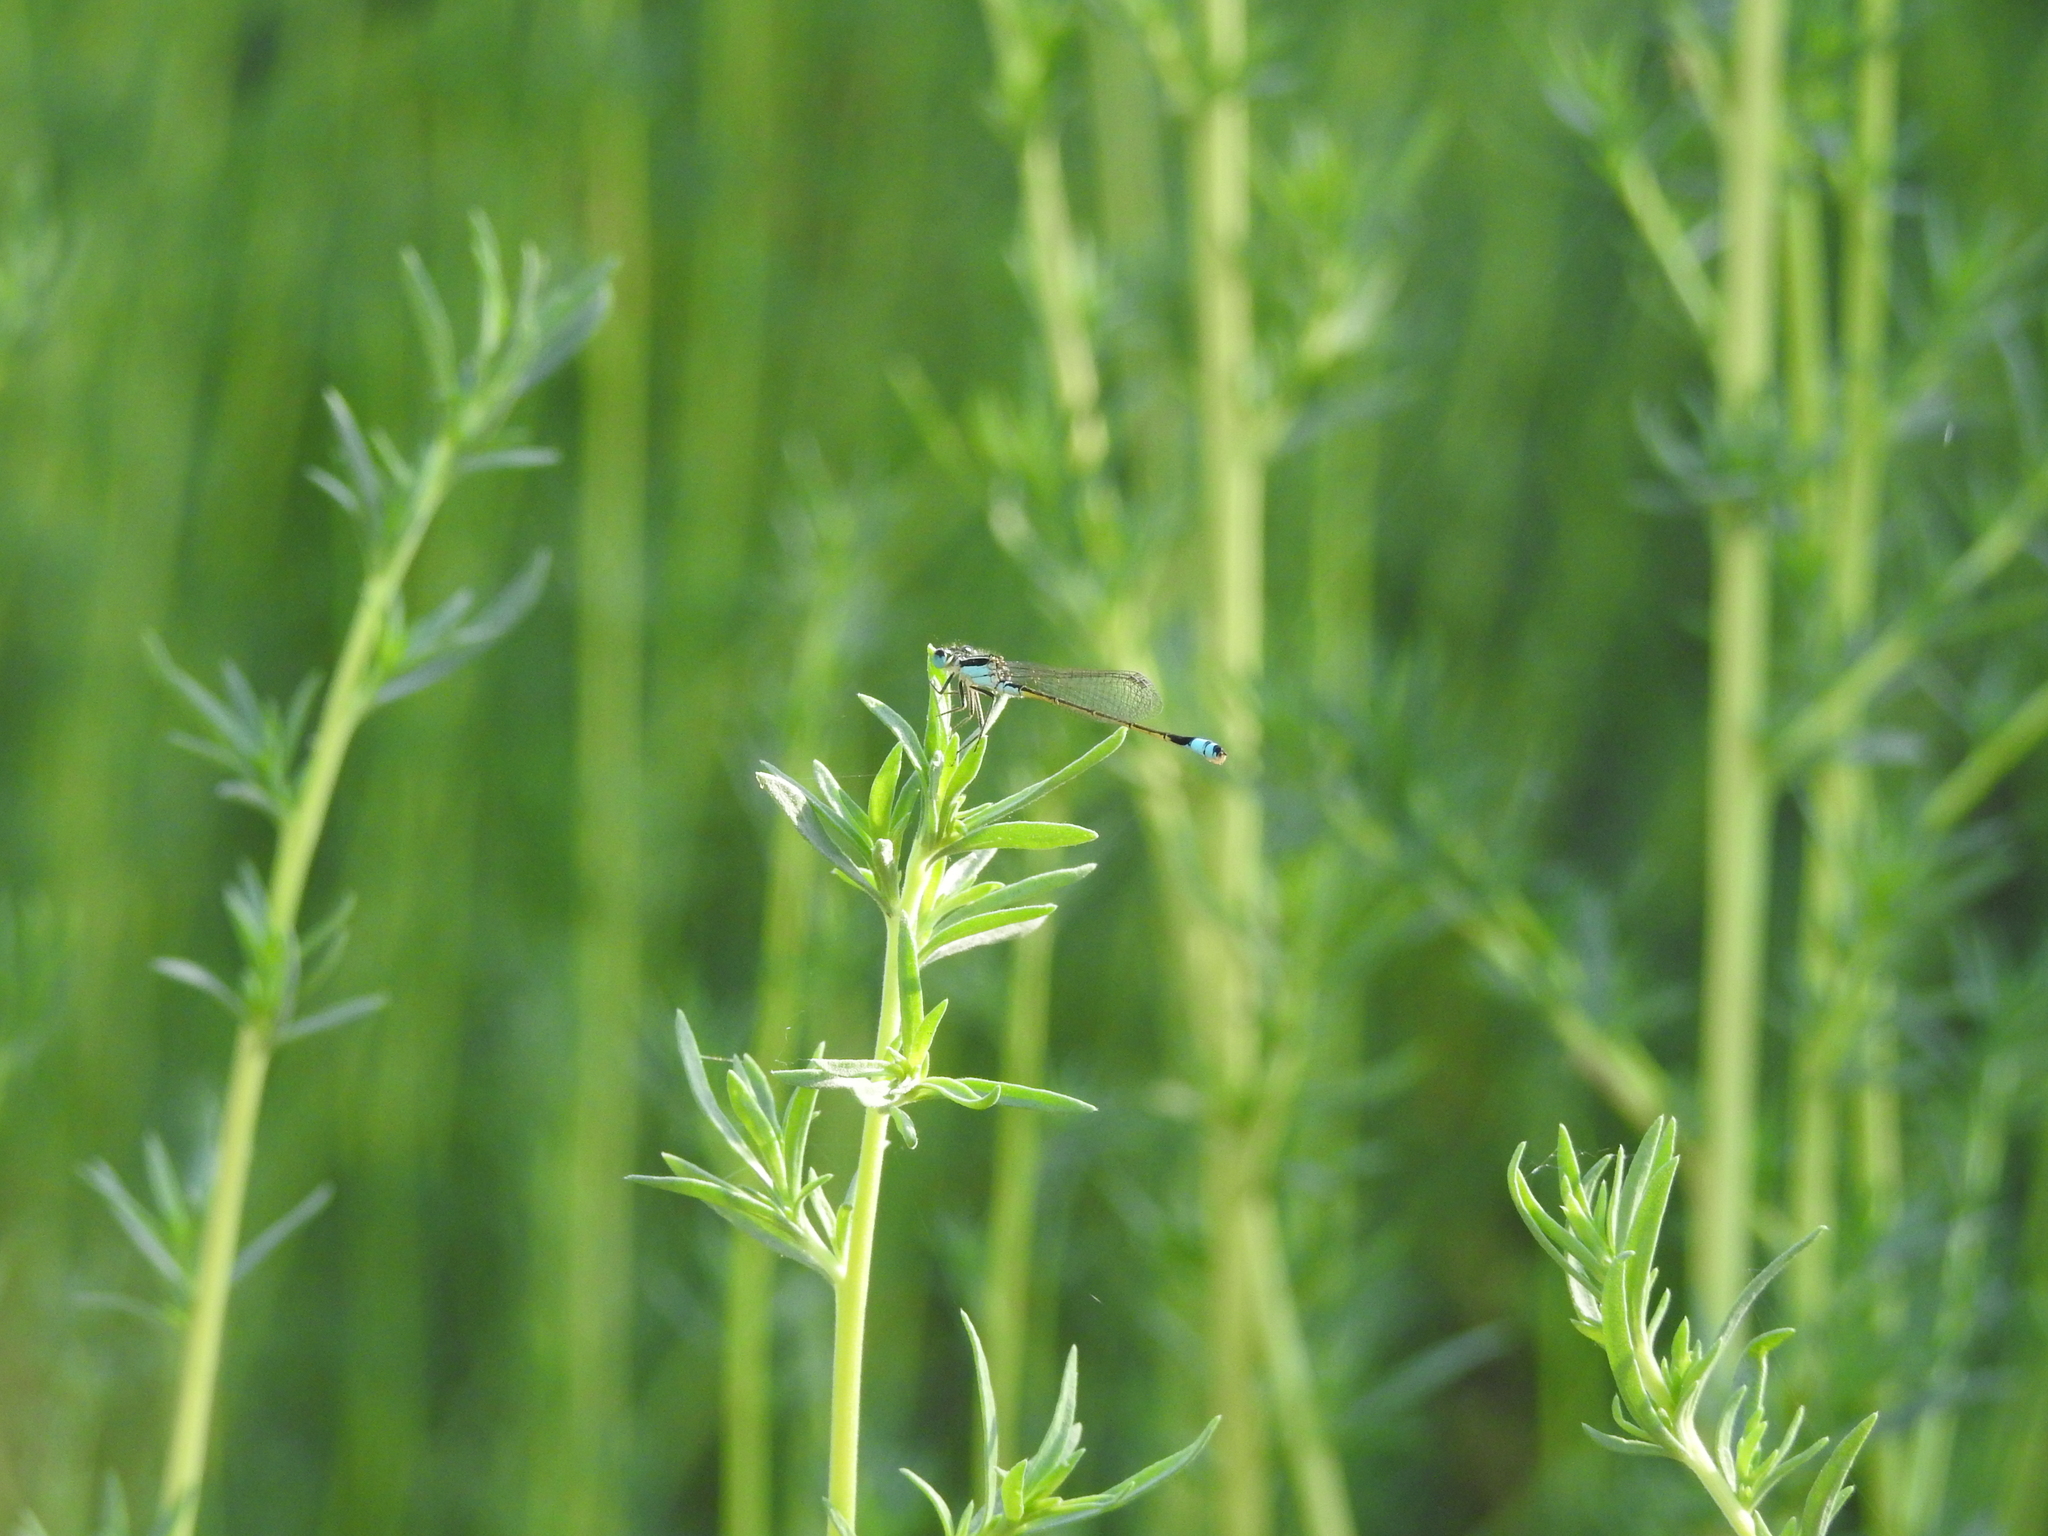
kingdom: Animalia
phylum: Arthropoda
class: Insecta
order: Odonata
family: Coenagrionidae
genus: Ischnura
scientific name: Ischnura ramburii
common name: Rambur's forktail
